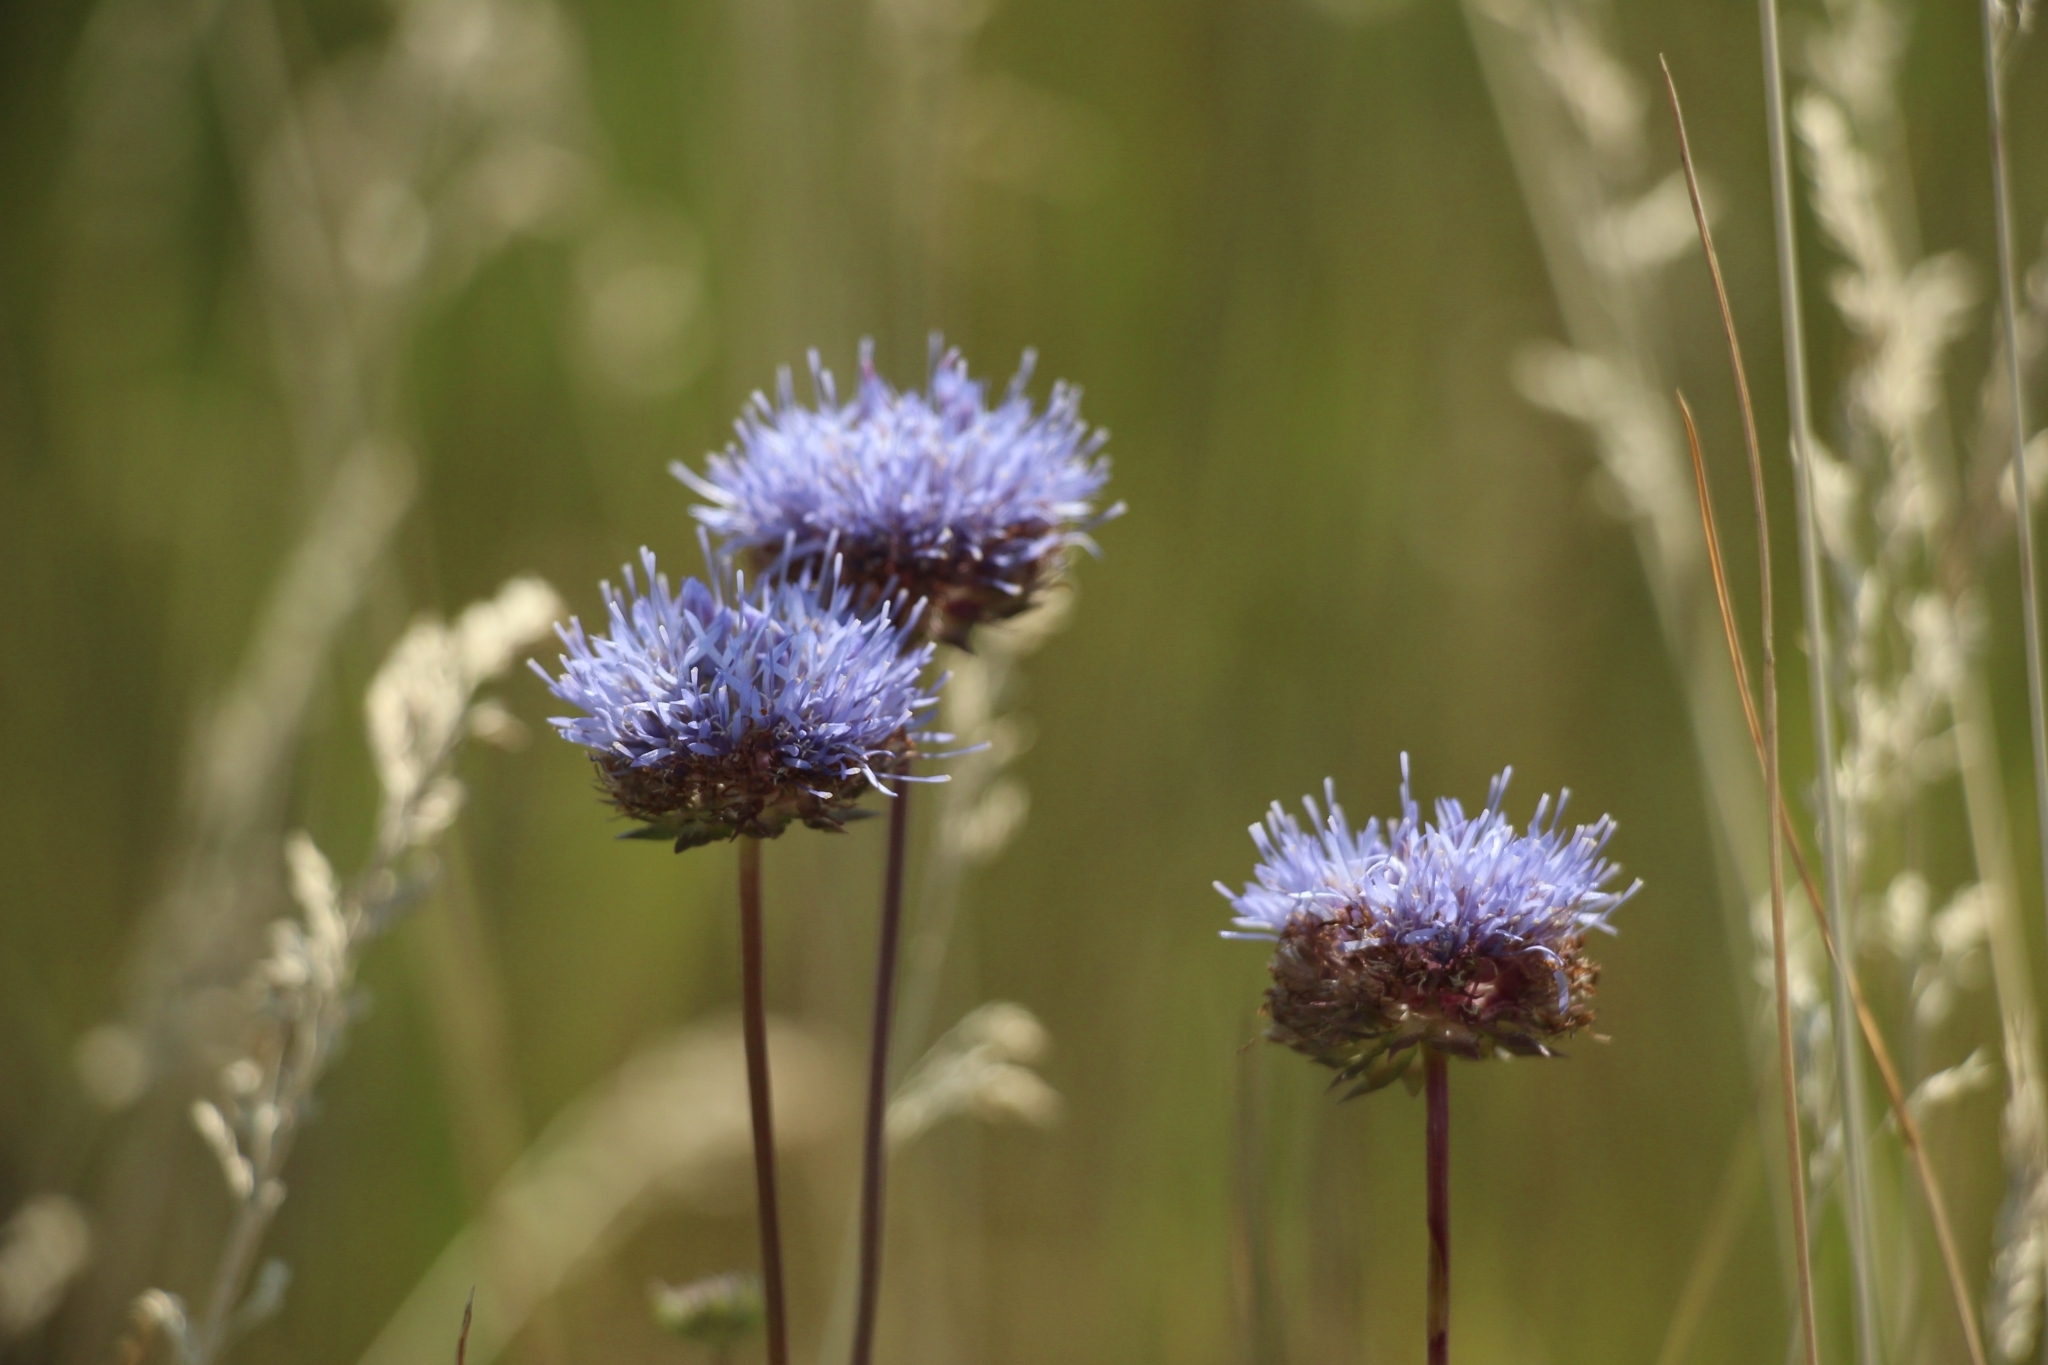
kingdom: Plantae
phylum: Tracheophyta
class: Magnoliopsida
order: Asterales
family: Campanulaceae
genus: Jasione
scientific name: Jasione montana
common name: Sheep's-bit
